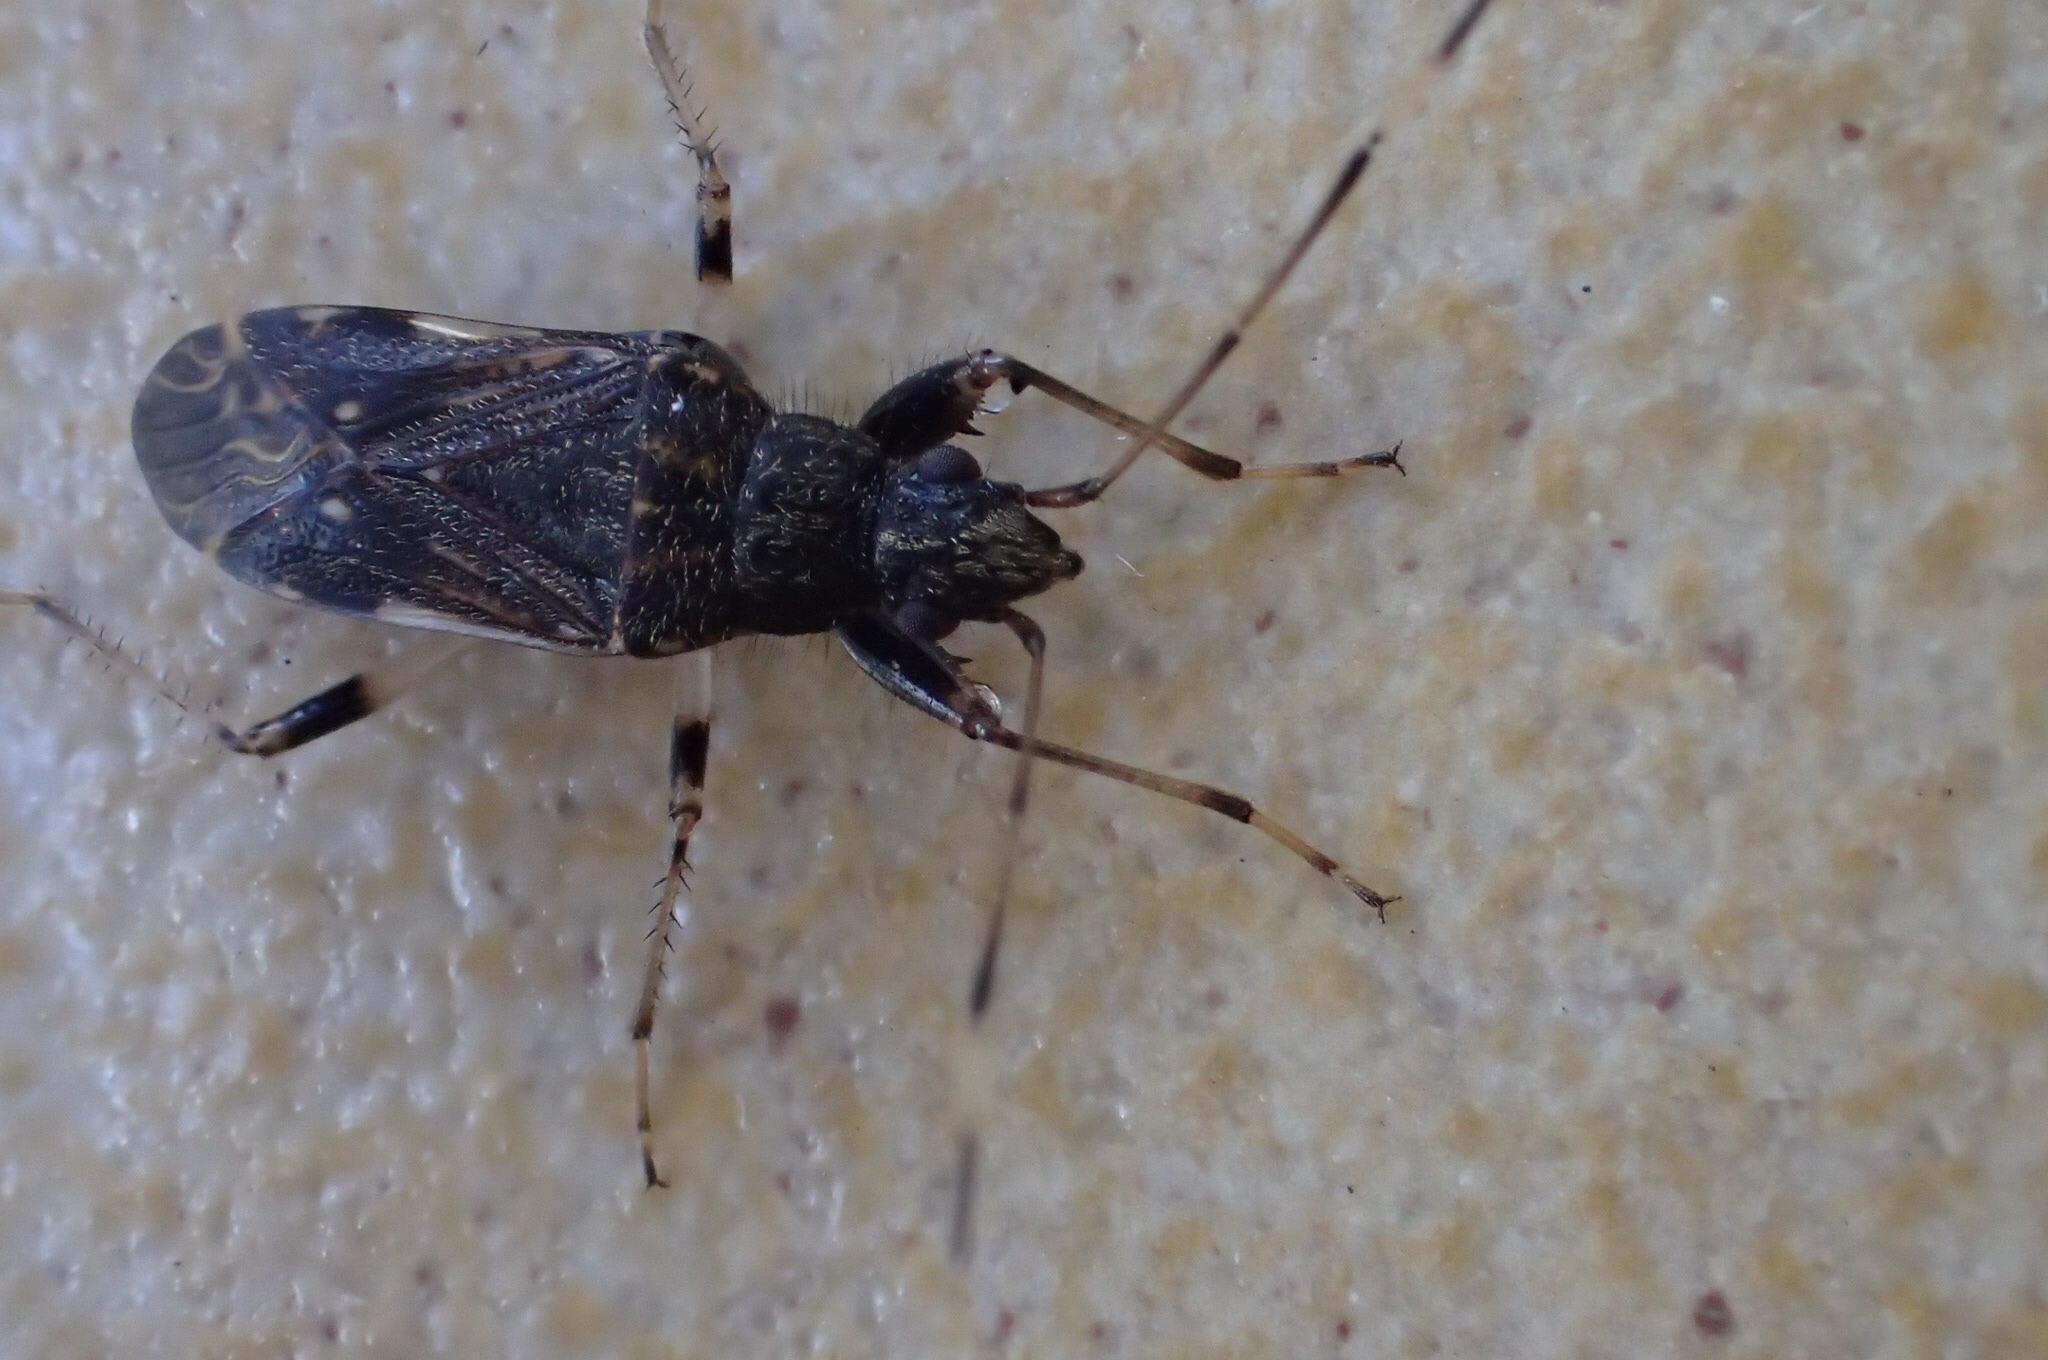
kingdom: Animalia
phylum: Arthropoda
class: Insecta
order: Hemiptera
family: Rhyparochromidae
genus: Froeschneria
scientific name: Froeschneria piligera
